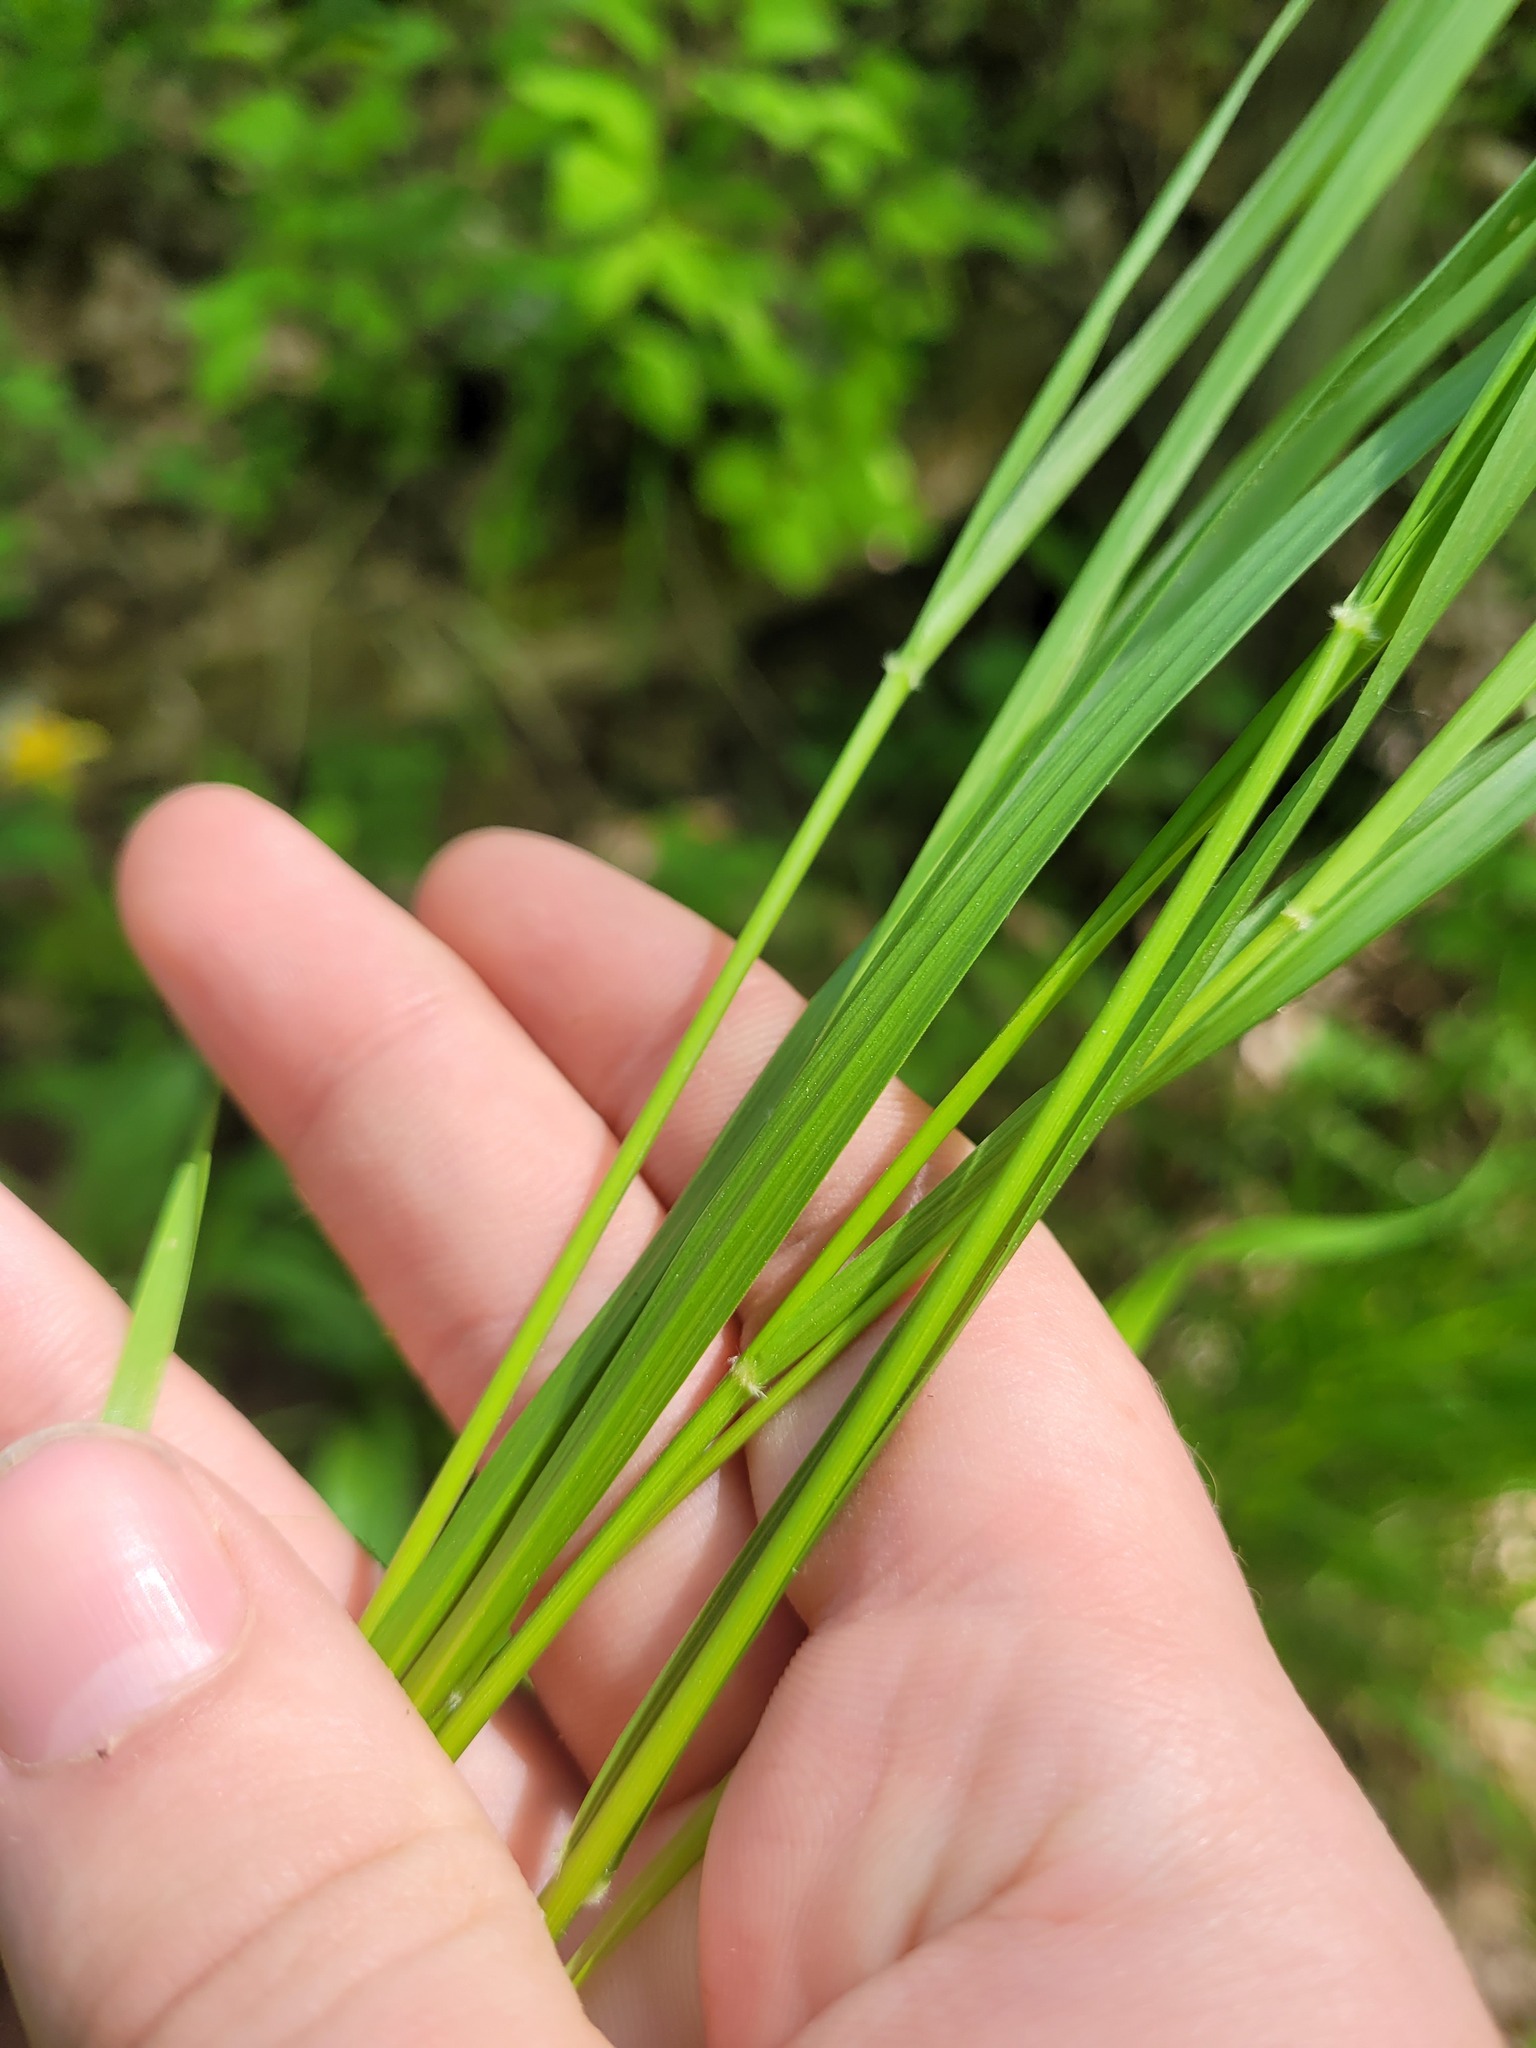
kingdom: Plantae
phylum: Tracheophyta
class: Liliopsida
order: Poales
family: Poaceae
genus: Calamagrostis
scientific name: Calamagrostis arundinacea
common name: Metskastik
